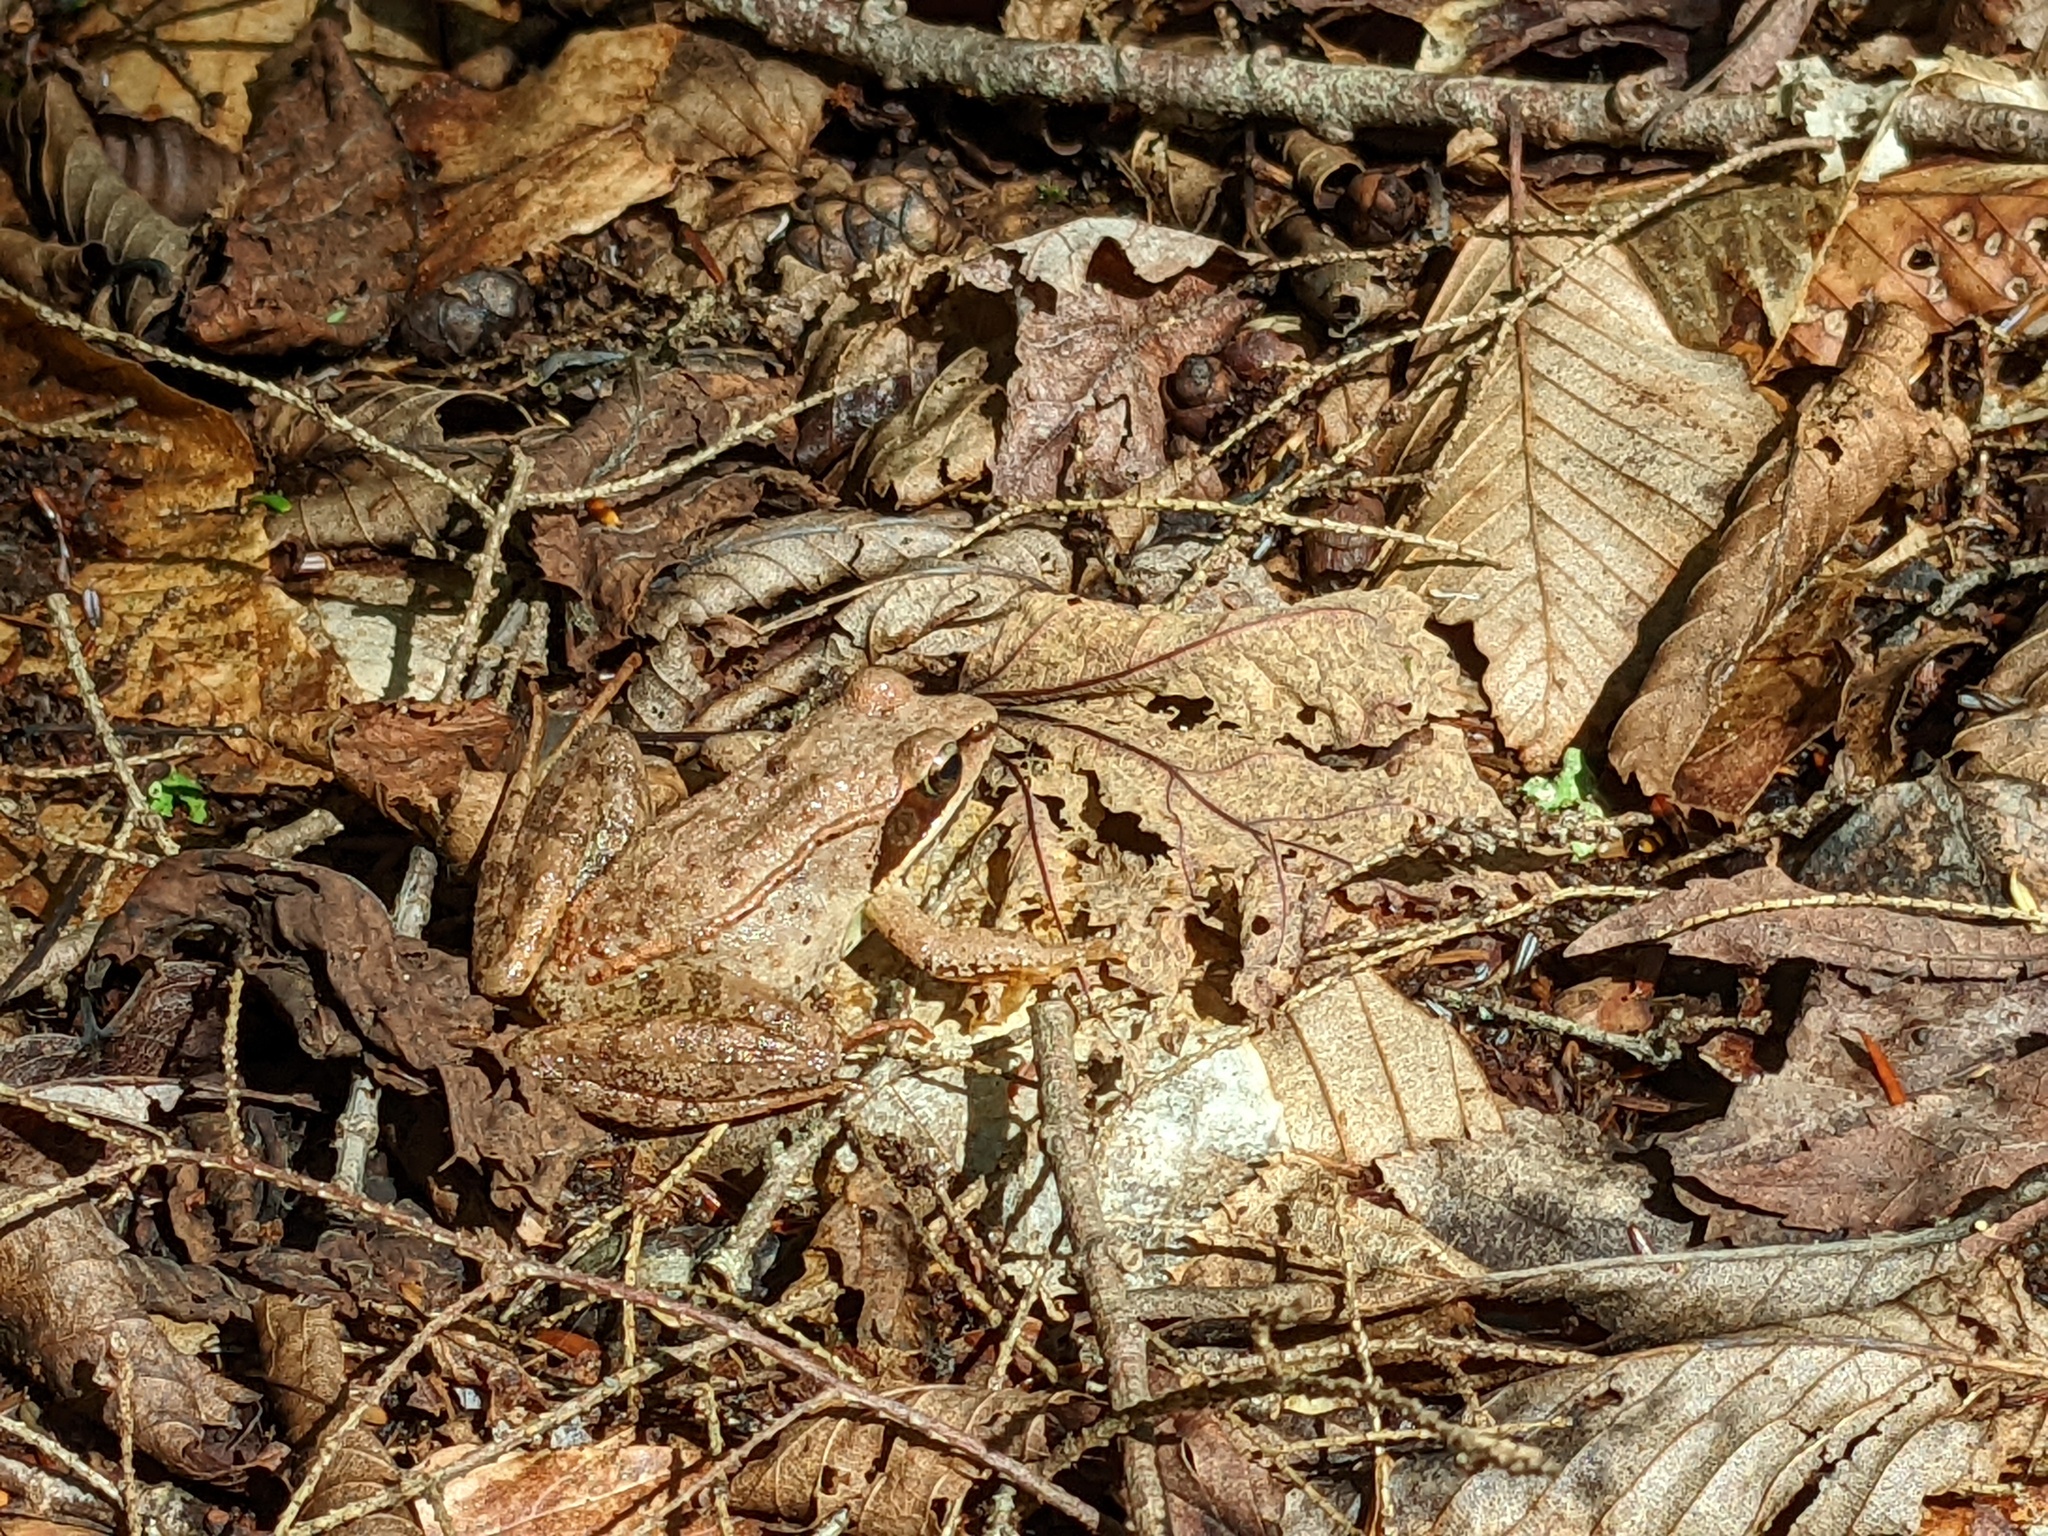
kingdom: Animalia
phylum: Chordata
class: Amphibia
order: Anura
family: Ranidae
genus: Lithobates
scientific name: Lithobates sylvaticus
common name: Wood frog
